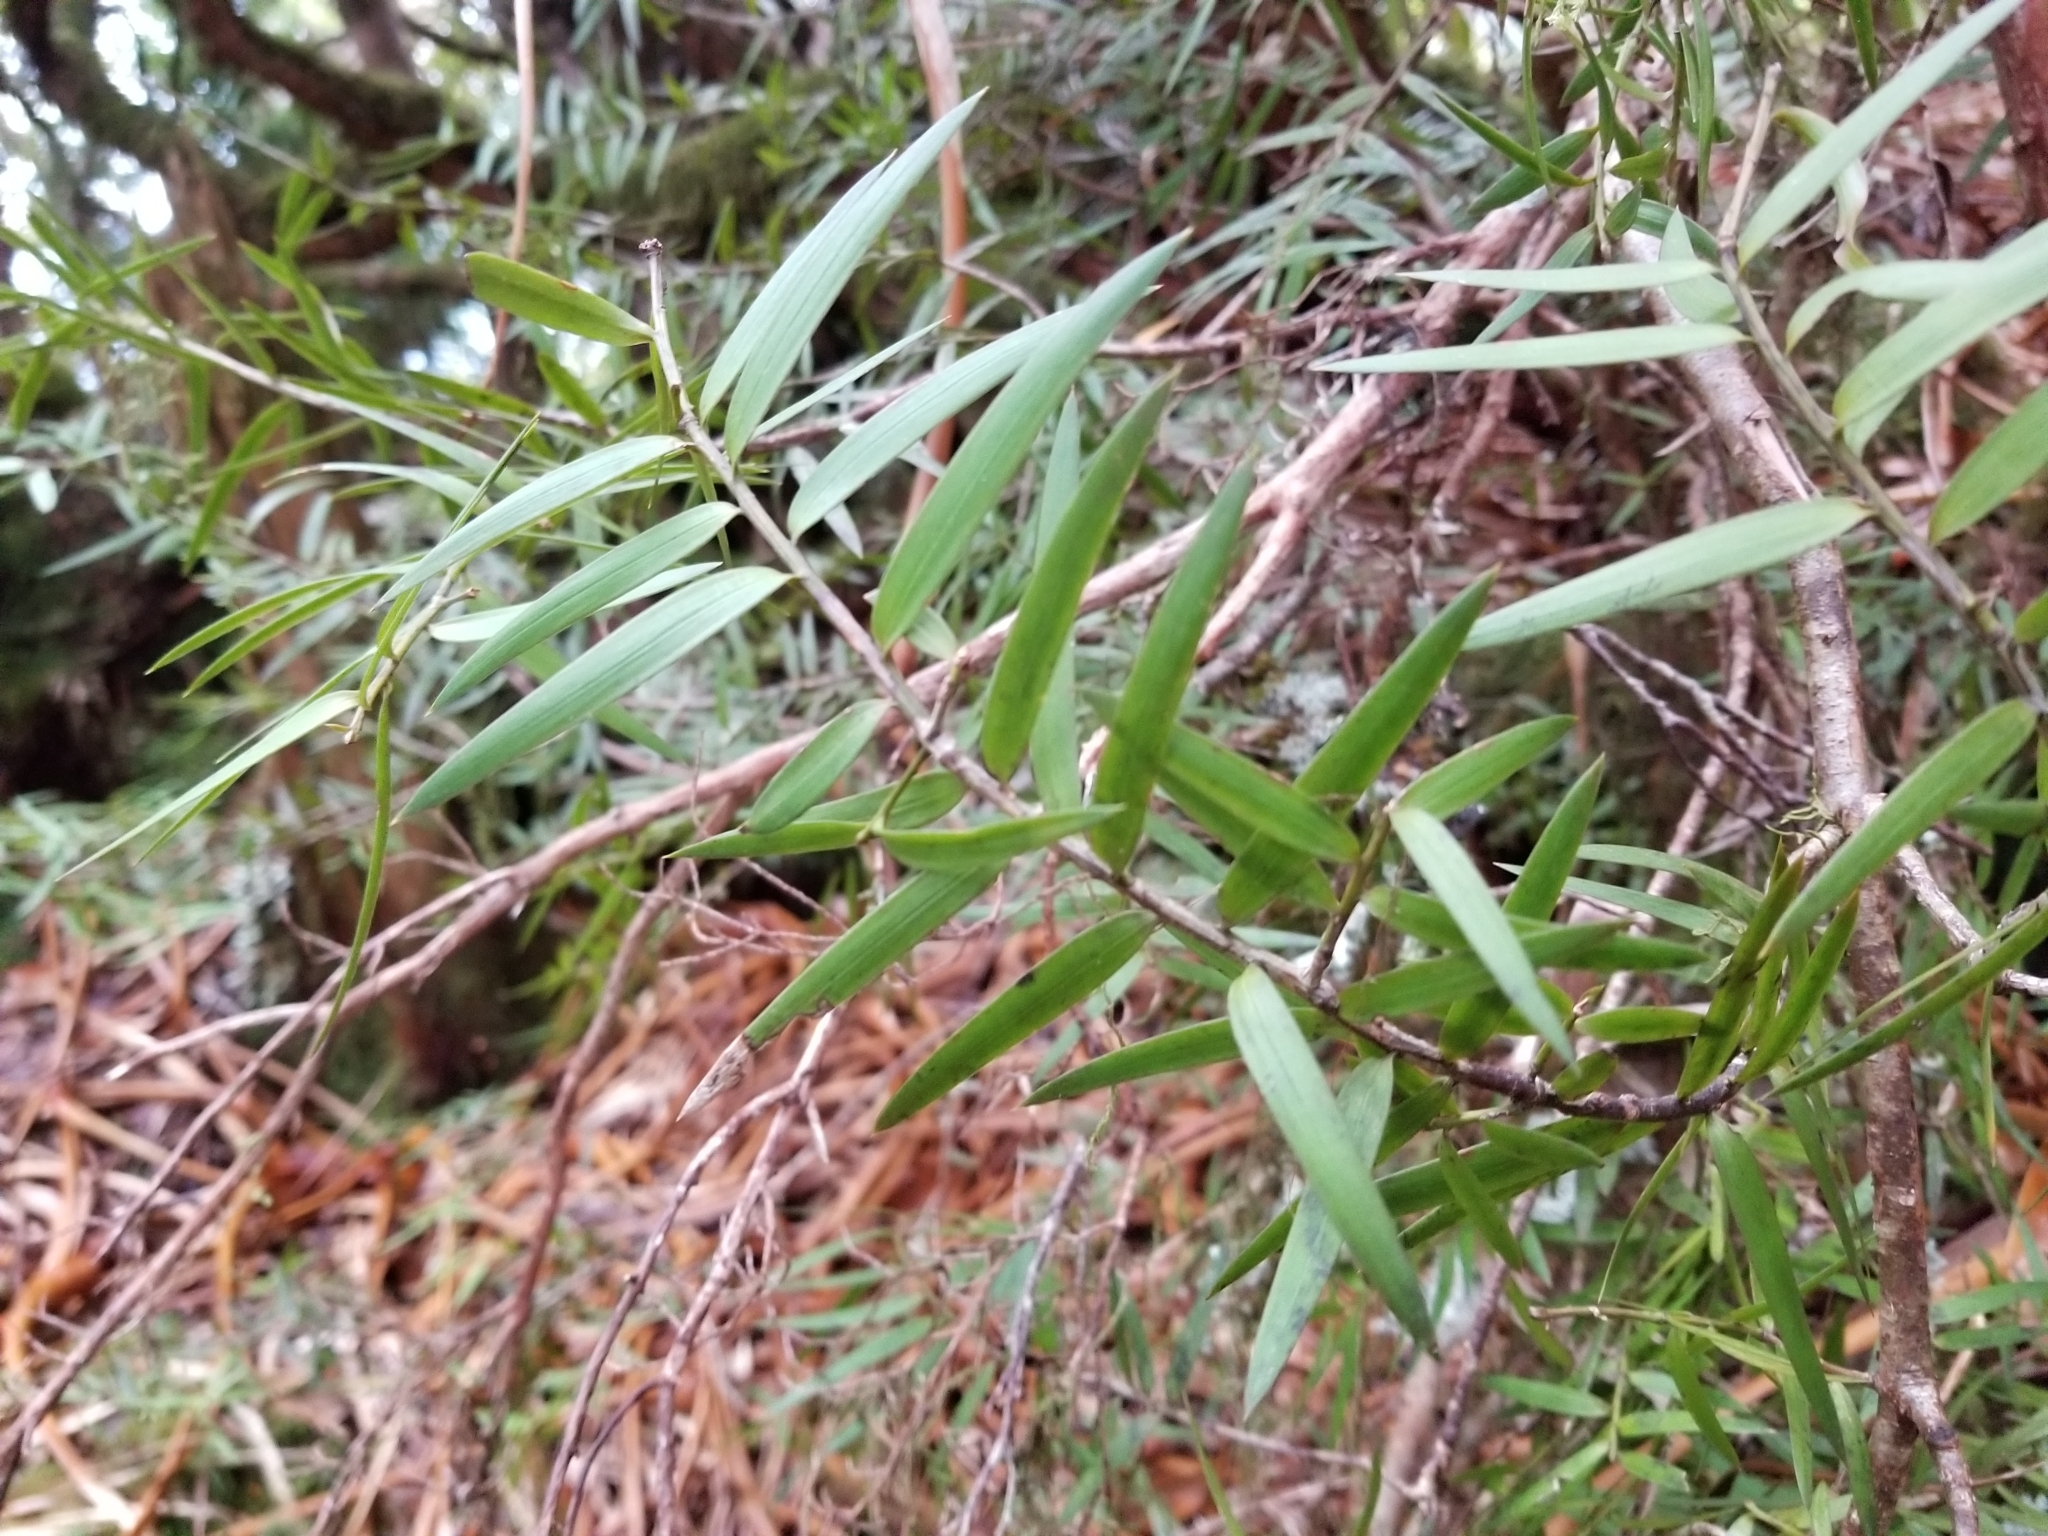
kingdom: Plantae
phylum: Tracheophyta
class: Pinopsida
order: Pinales
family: Podocarpaceae
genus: Podocarpus
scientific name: Podocarpus laetus
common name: Hall's totara
